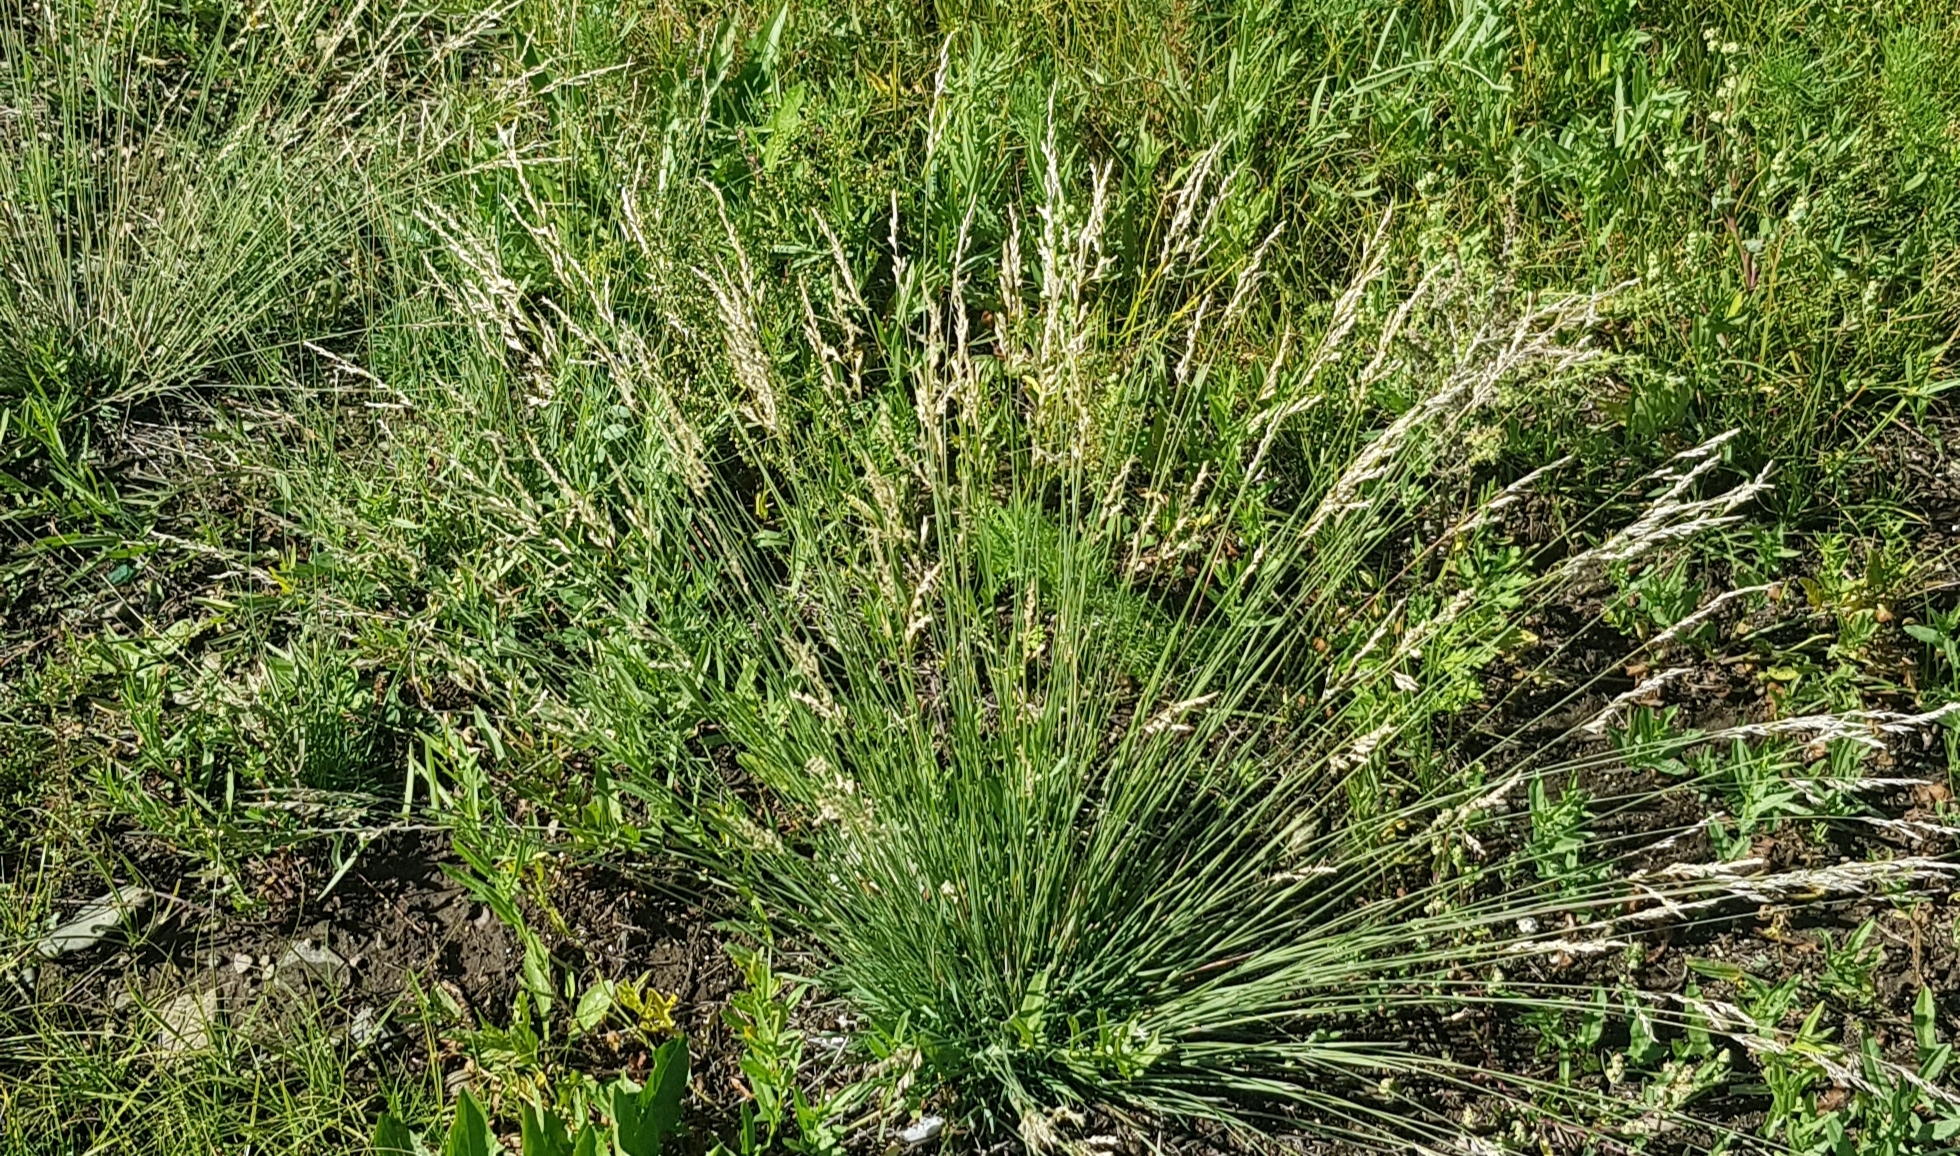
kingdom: Plantae
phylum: Tracheophyta
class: Liliopsida
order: Poales
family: Poaceae
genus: Neotrinia
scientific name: Neotrinia splendens
